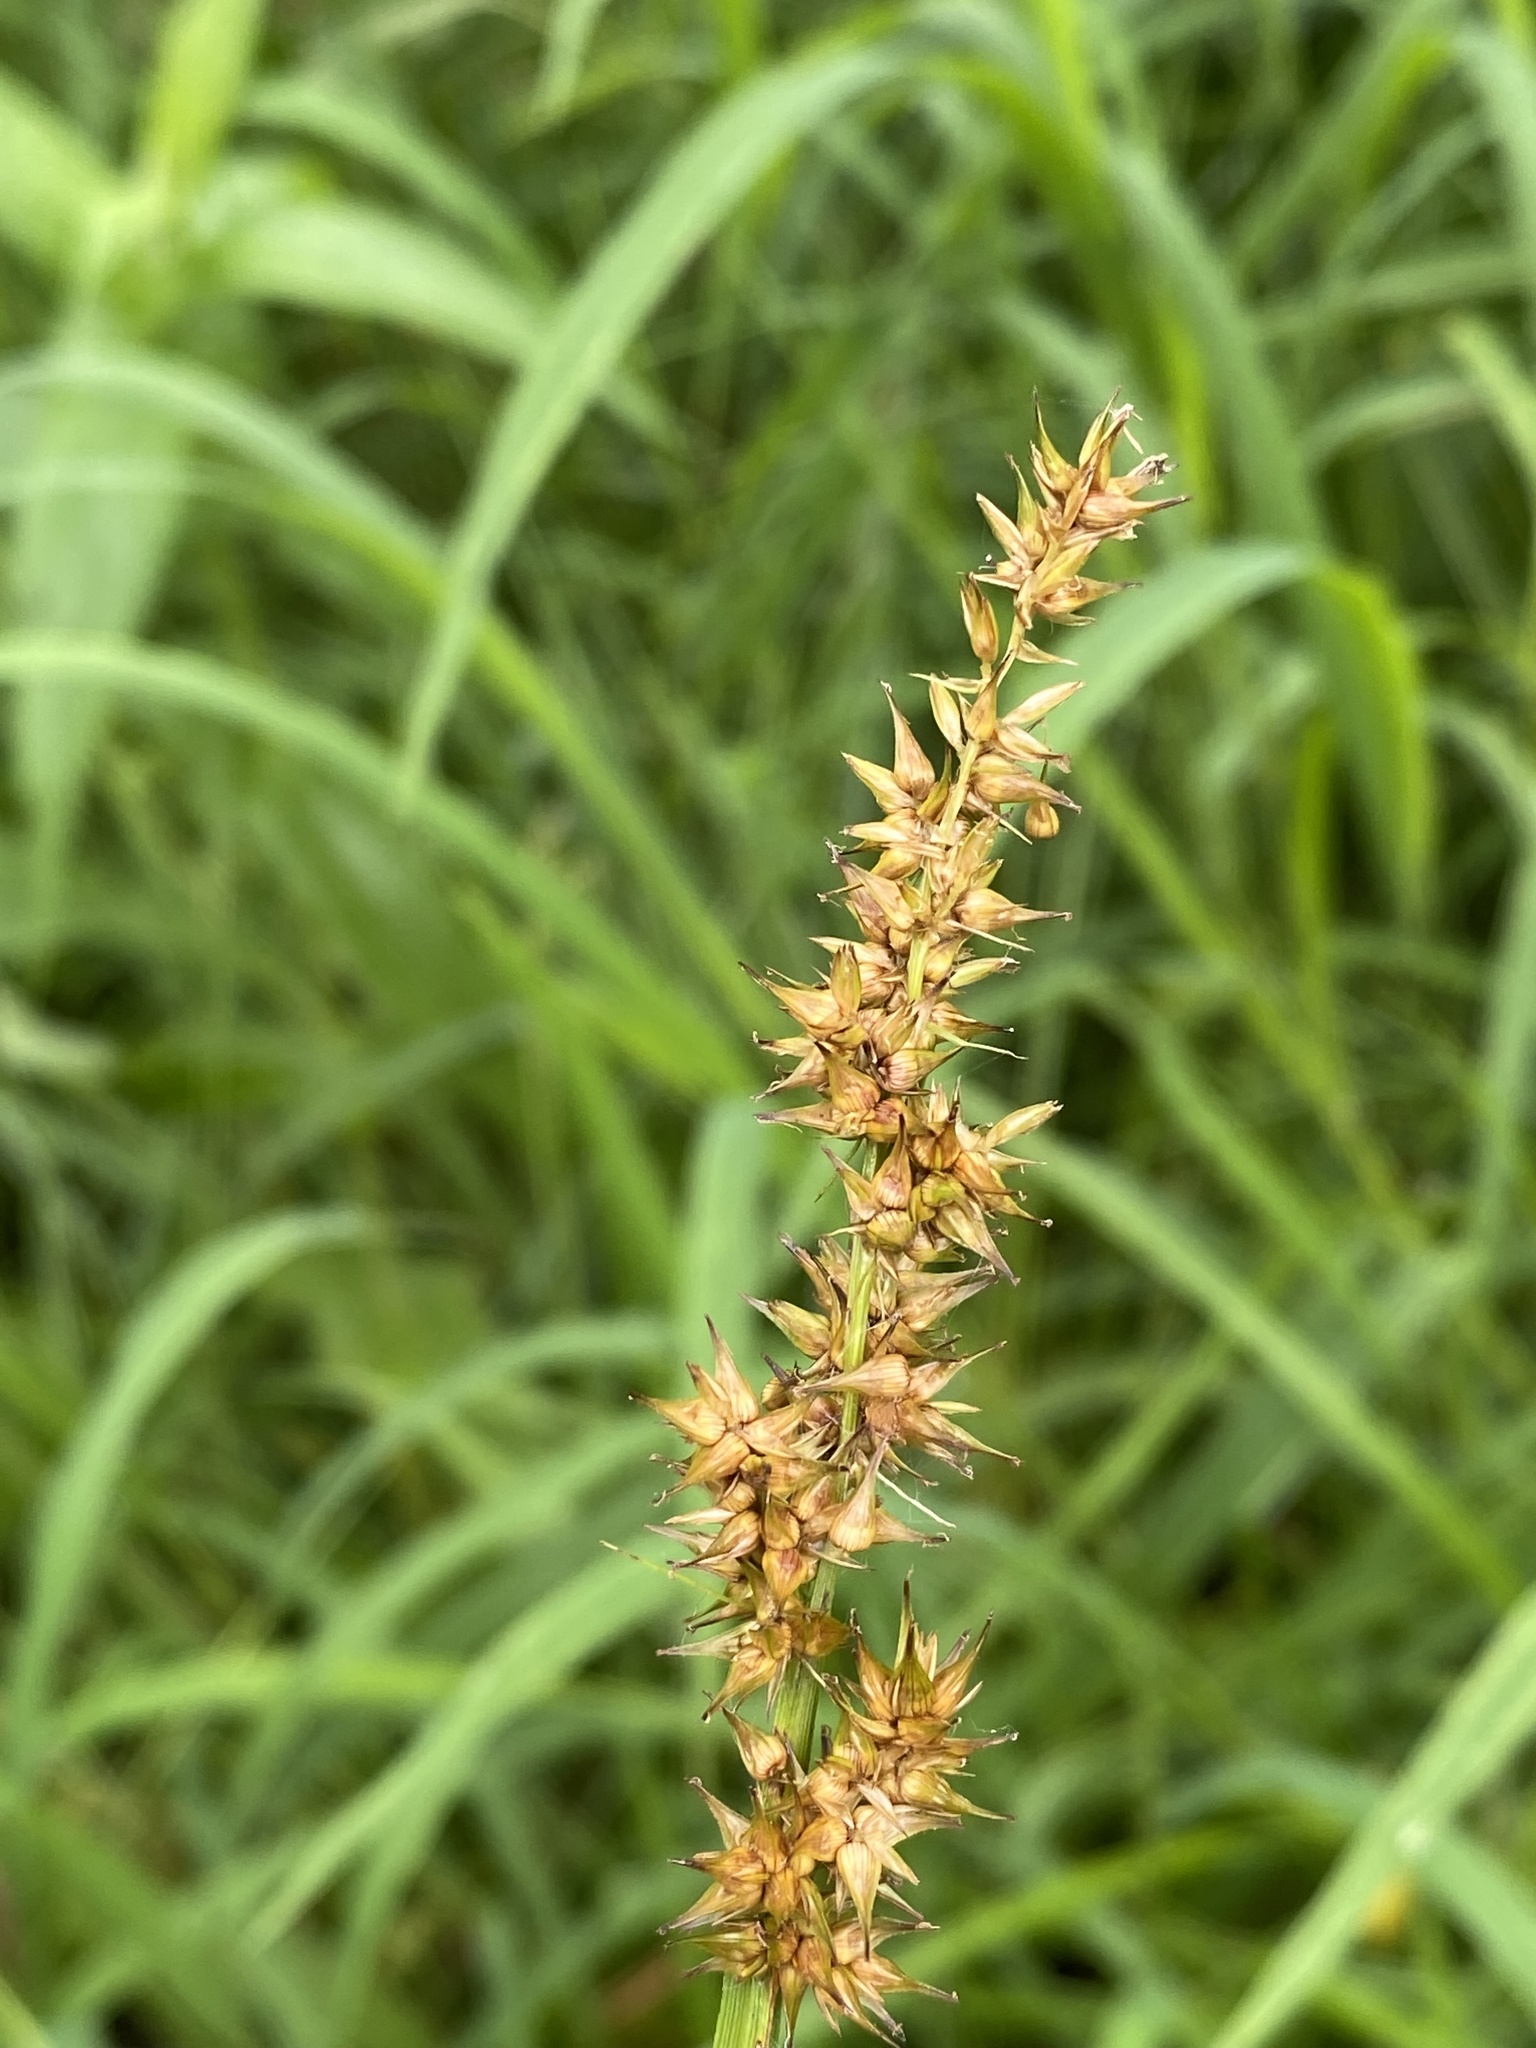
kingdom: Plantae
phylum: Tracheophyta
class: Liliopsida
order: Poales
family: Cyperaceae
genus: Carex
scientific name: Carex stipata
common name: Awl-fruited sedge
